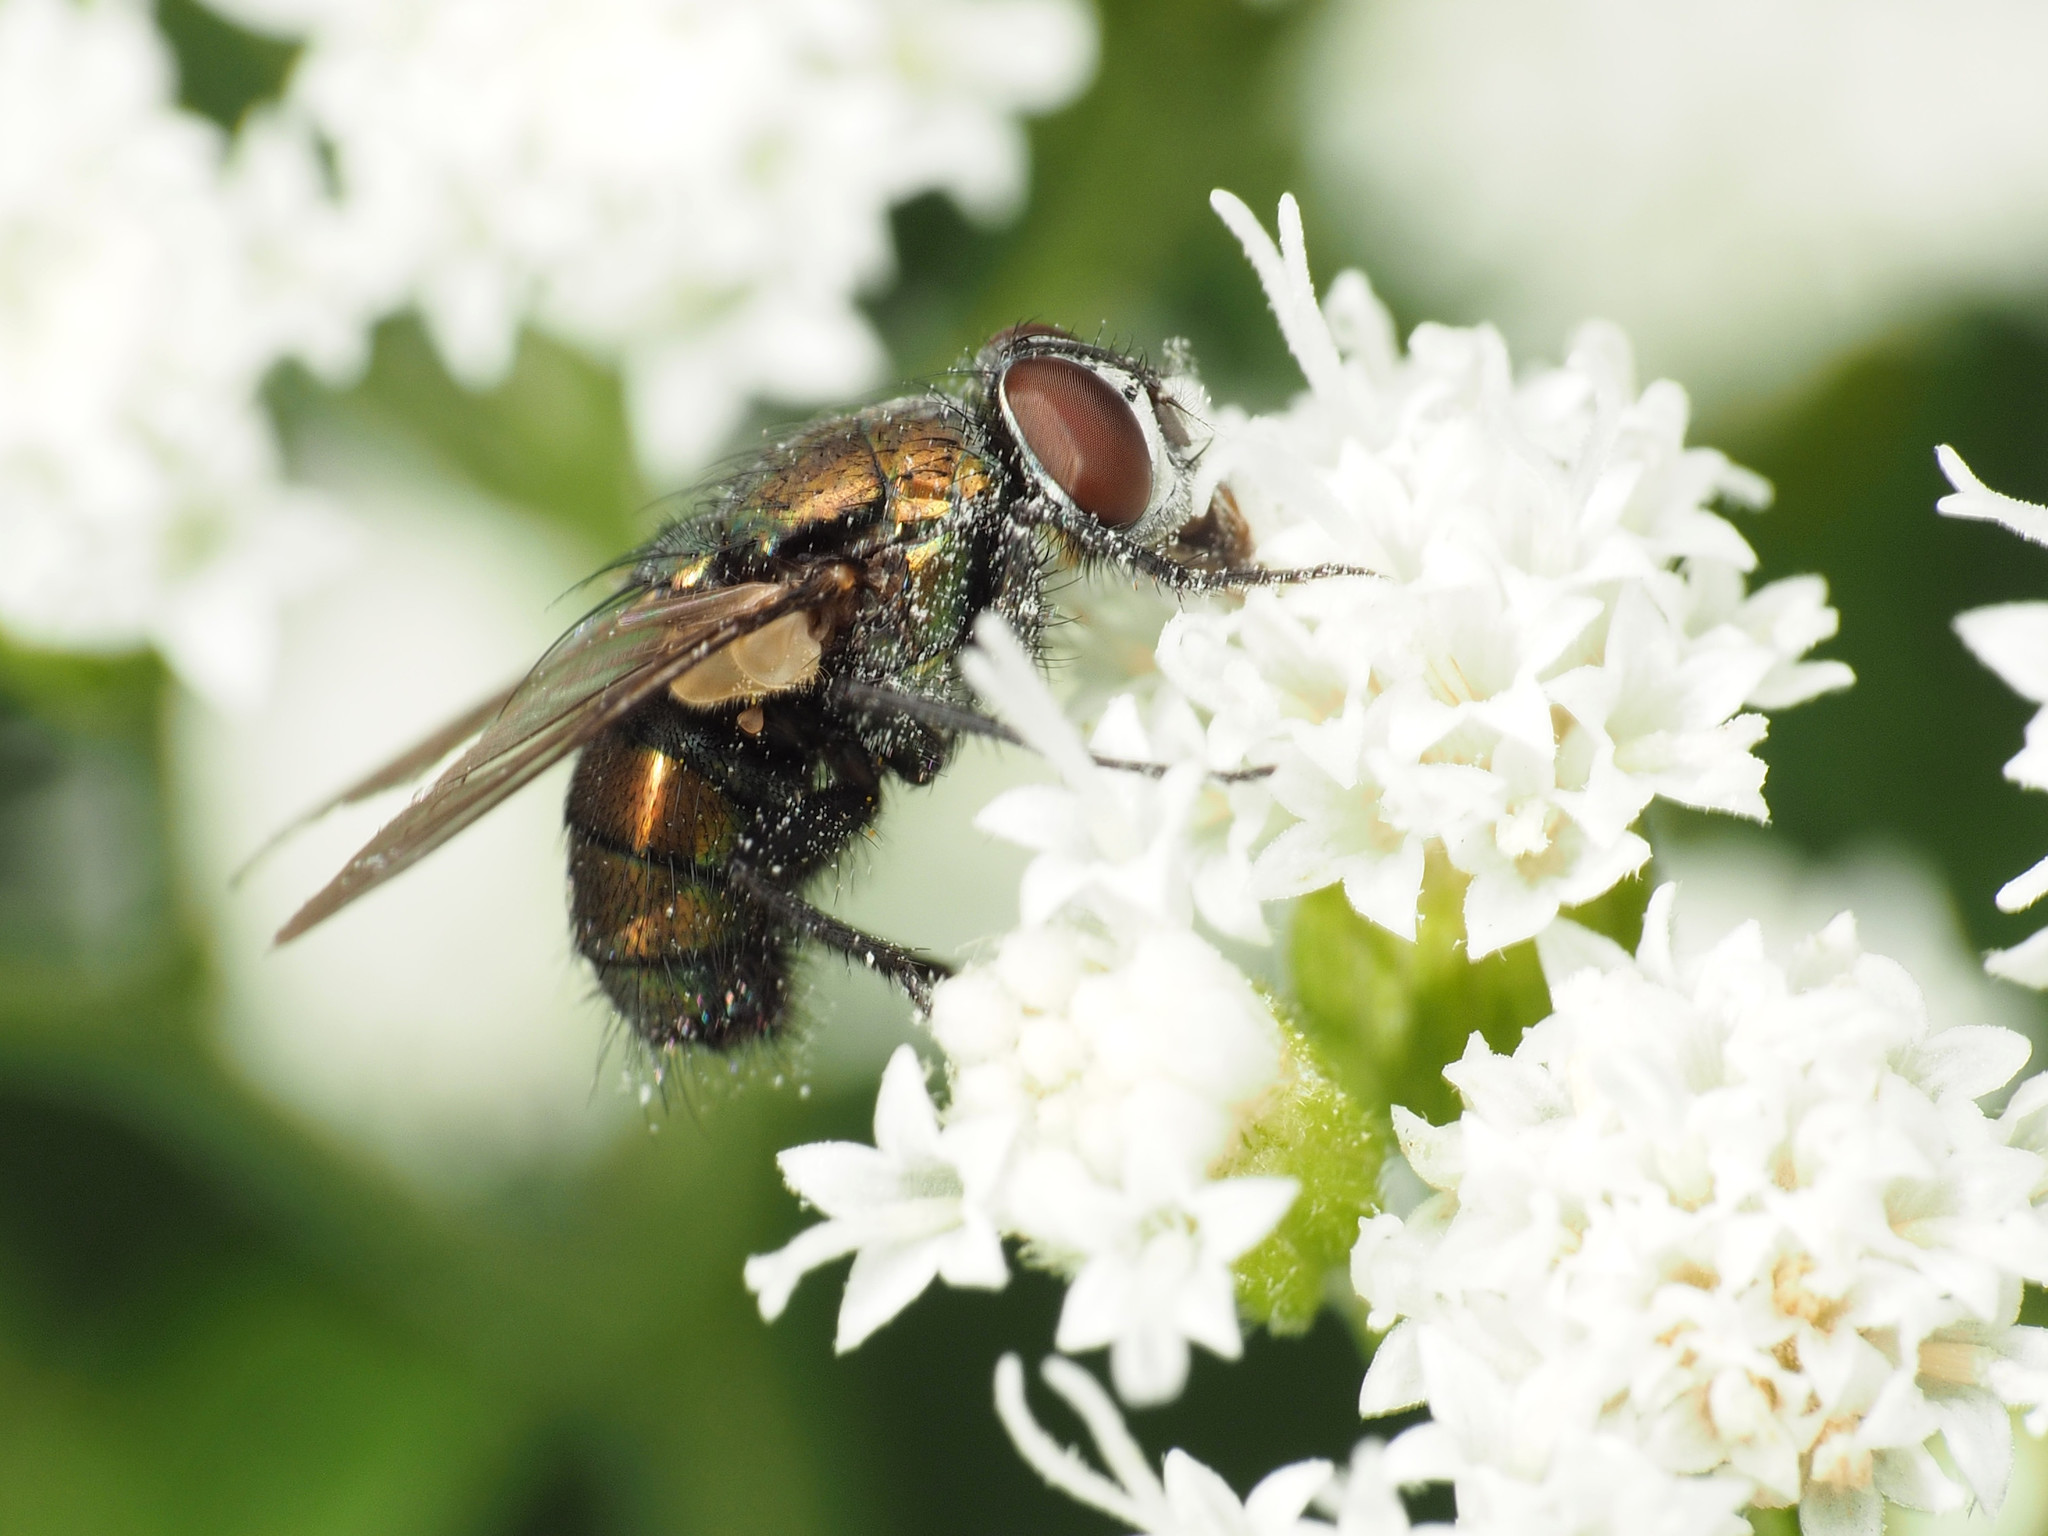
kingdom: Animalia
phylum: Arthropoda
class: Insecta
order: Diptera
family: Calliphoridae
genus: Lucilia
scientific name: Lucilia cuprina
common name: Sheep blow fly
